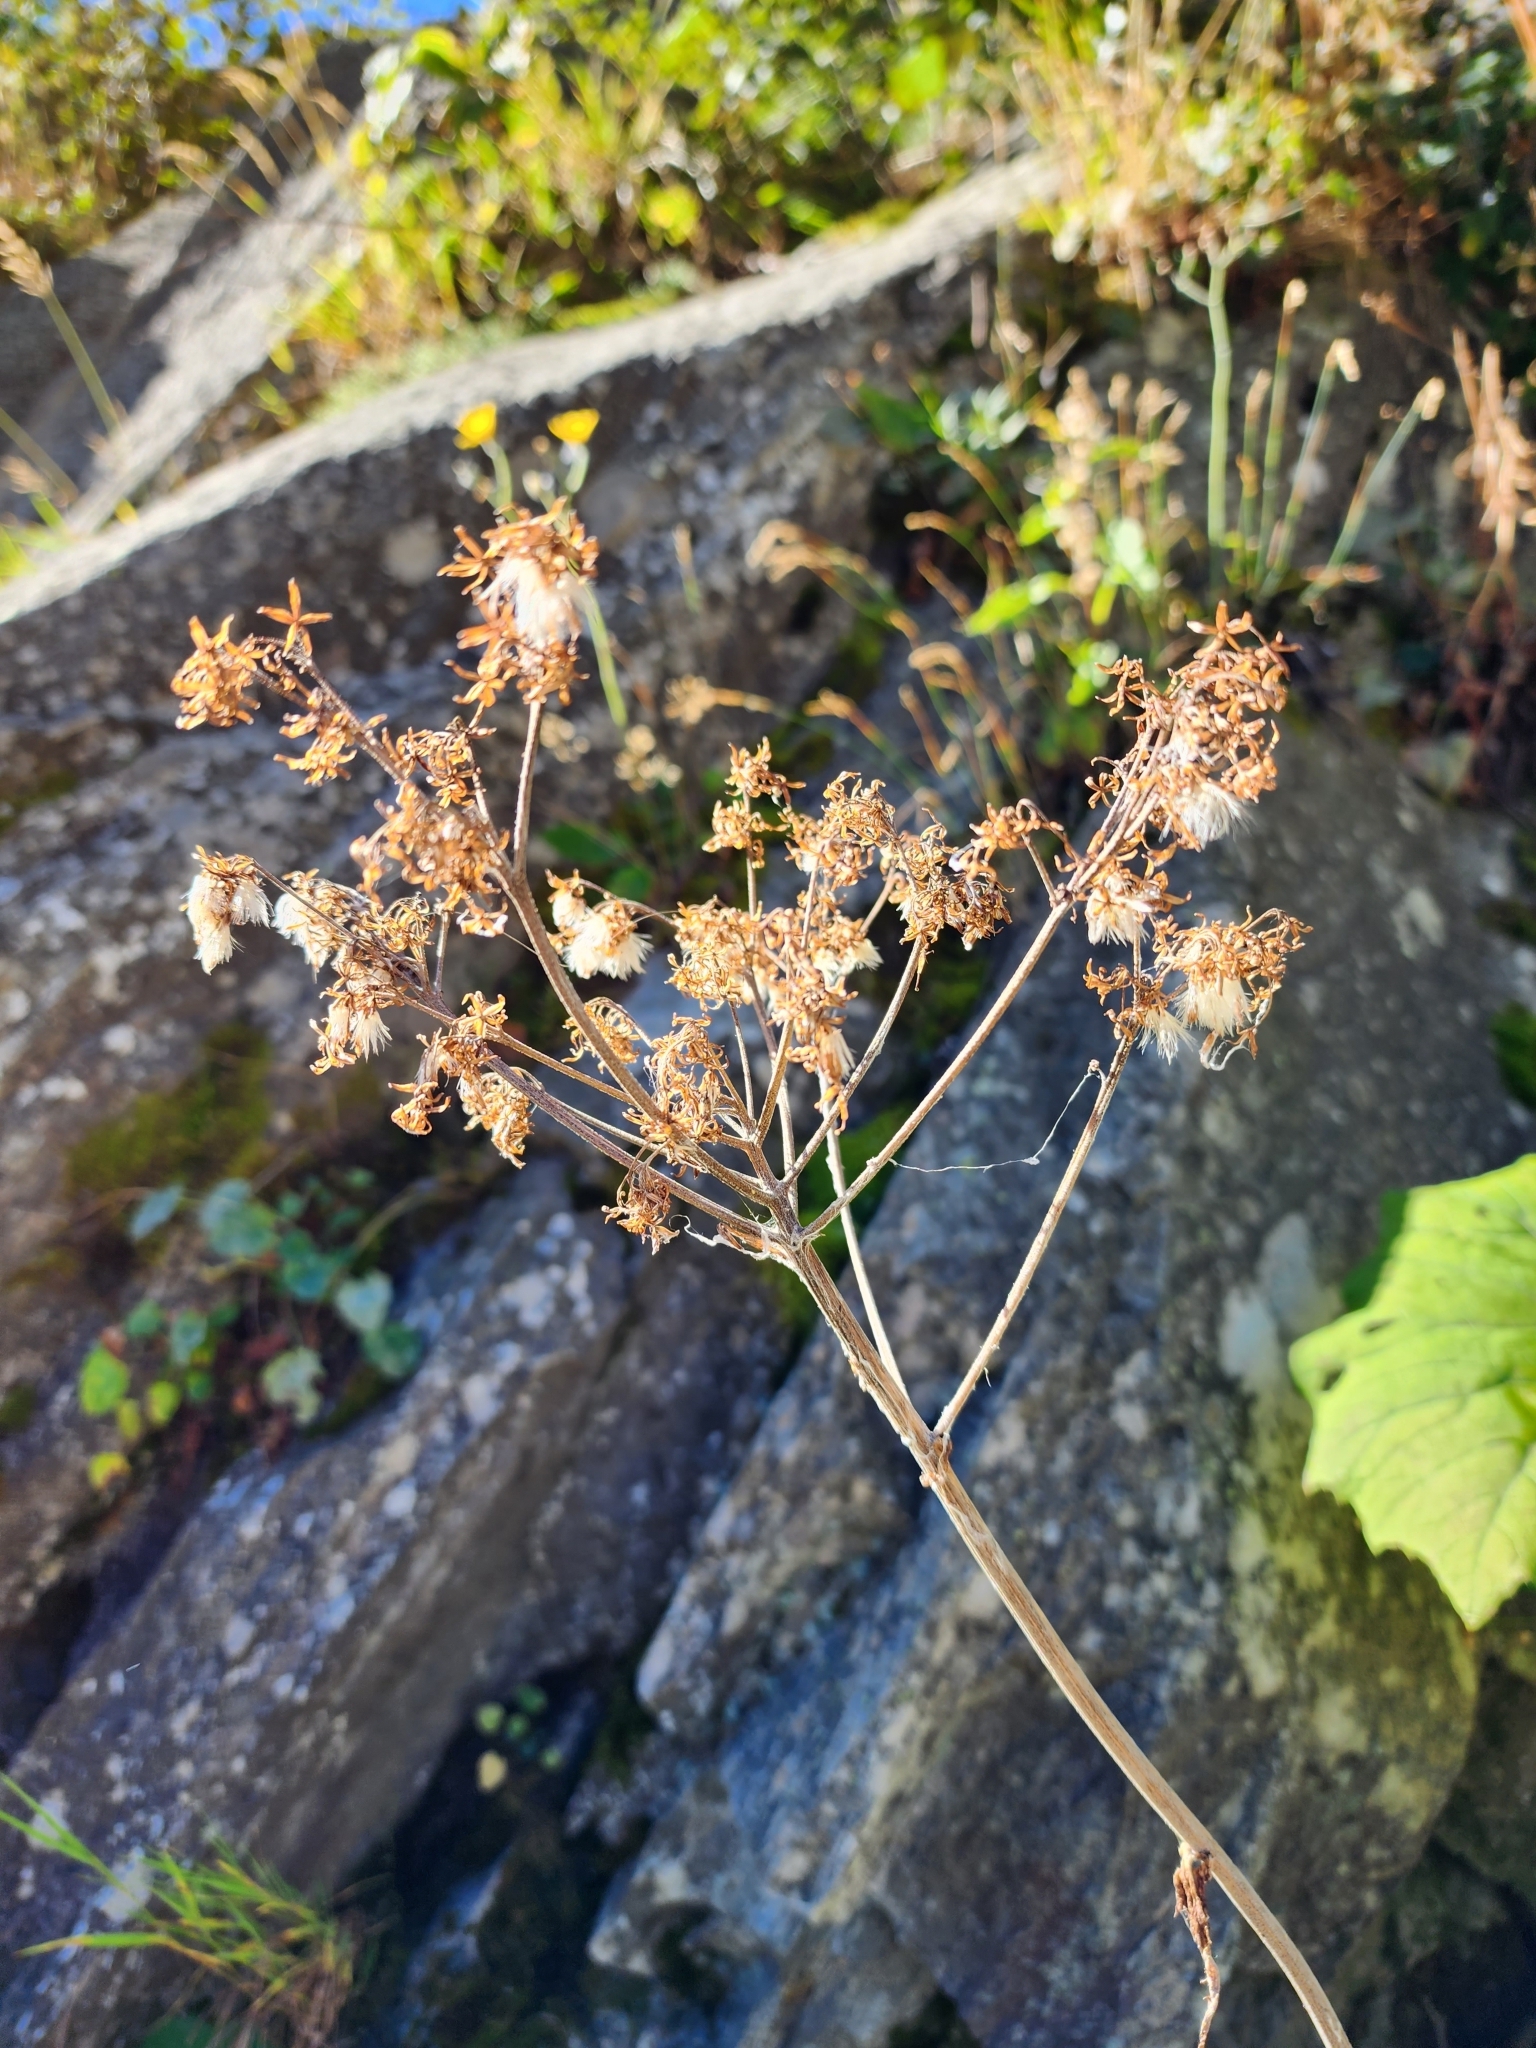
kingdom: Plantae
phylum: Tracheophyta
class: Magnoliopsida
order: Asterales
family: Asteraceae
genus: Adenostyles
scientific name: Adenostyles alliariae
